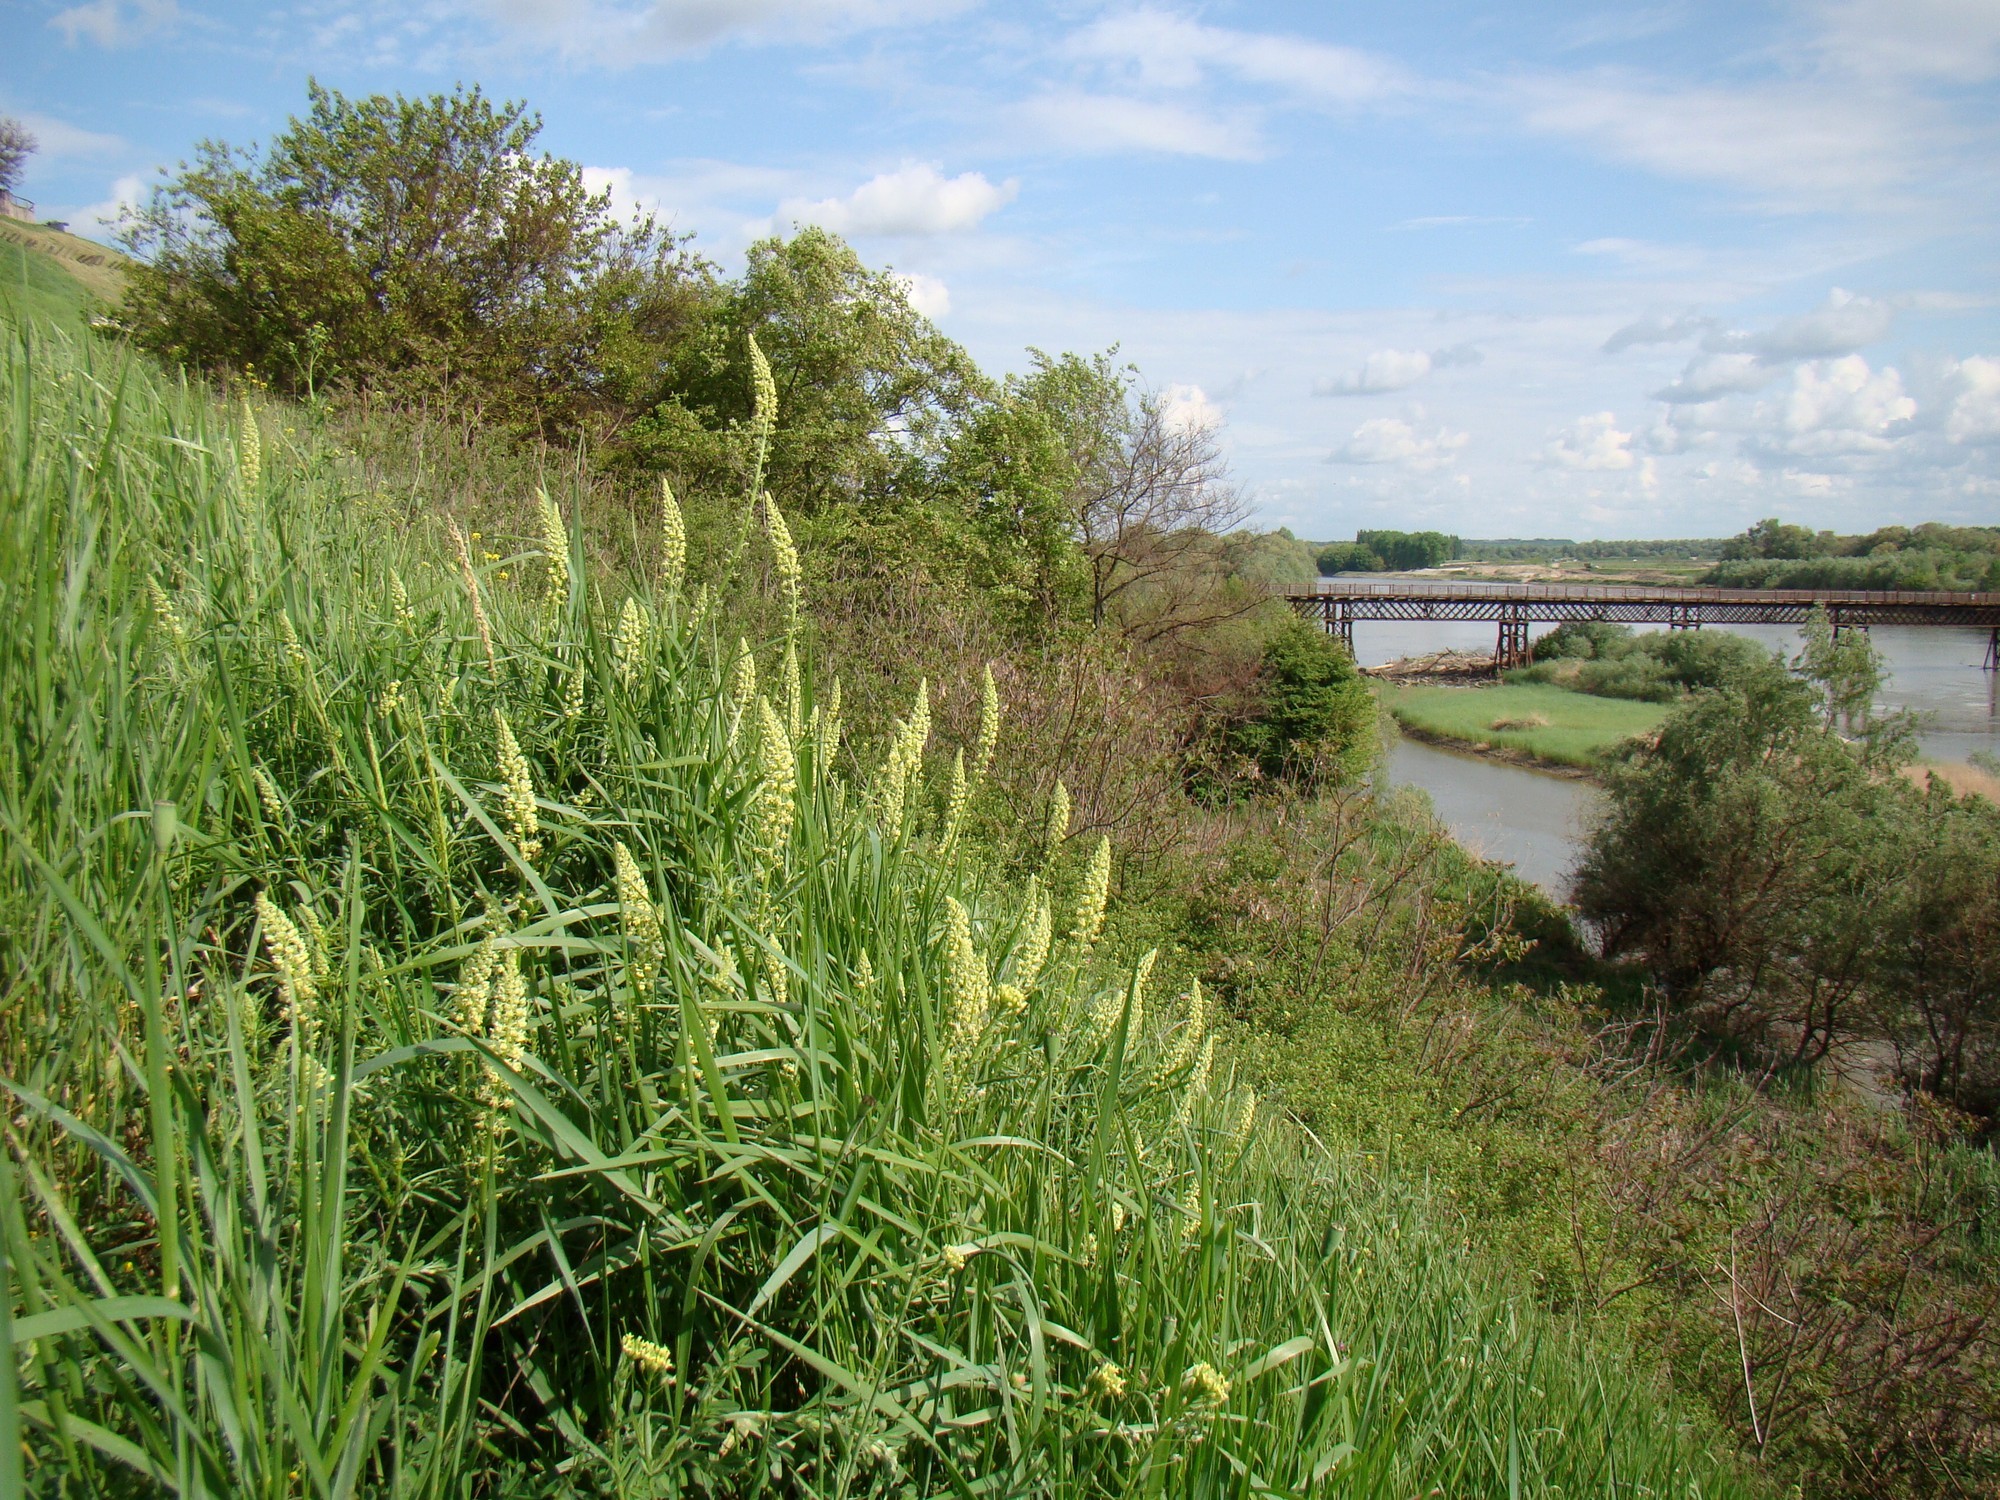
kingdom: Plantae
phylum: Tracheophyta
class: Magnoliopsida
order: Brassicales
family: Resedaceae
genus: Reseda
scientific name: Reseda lutea
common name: Wild mignonette
